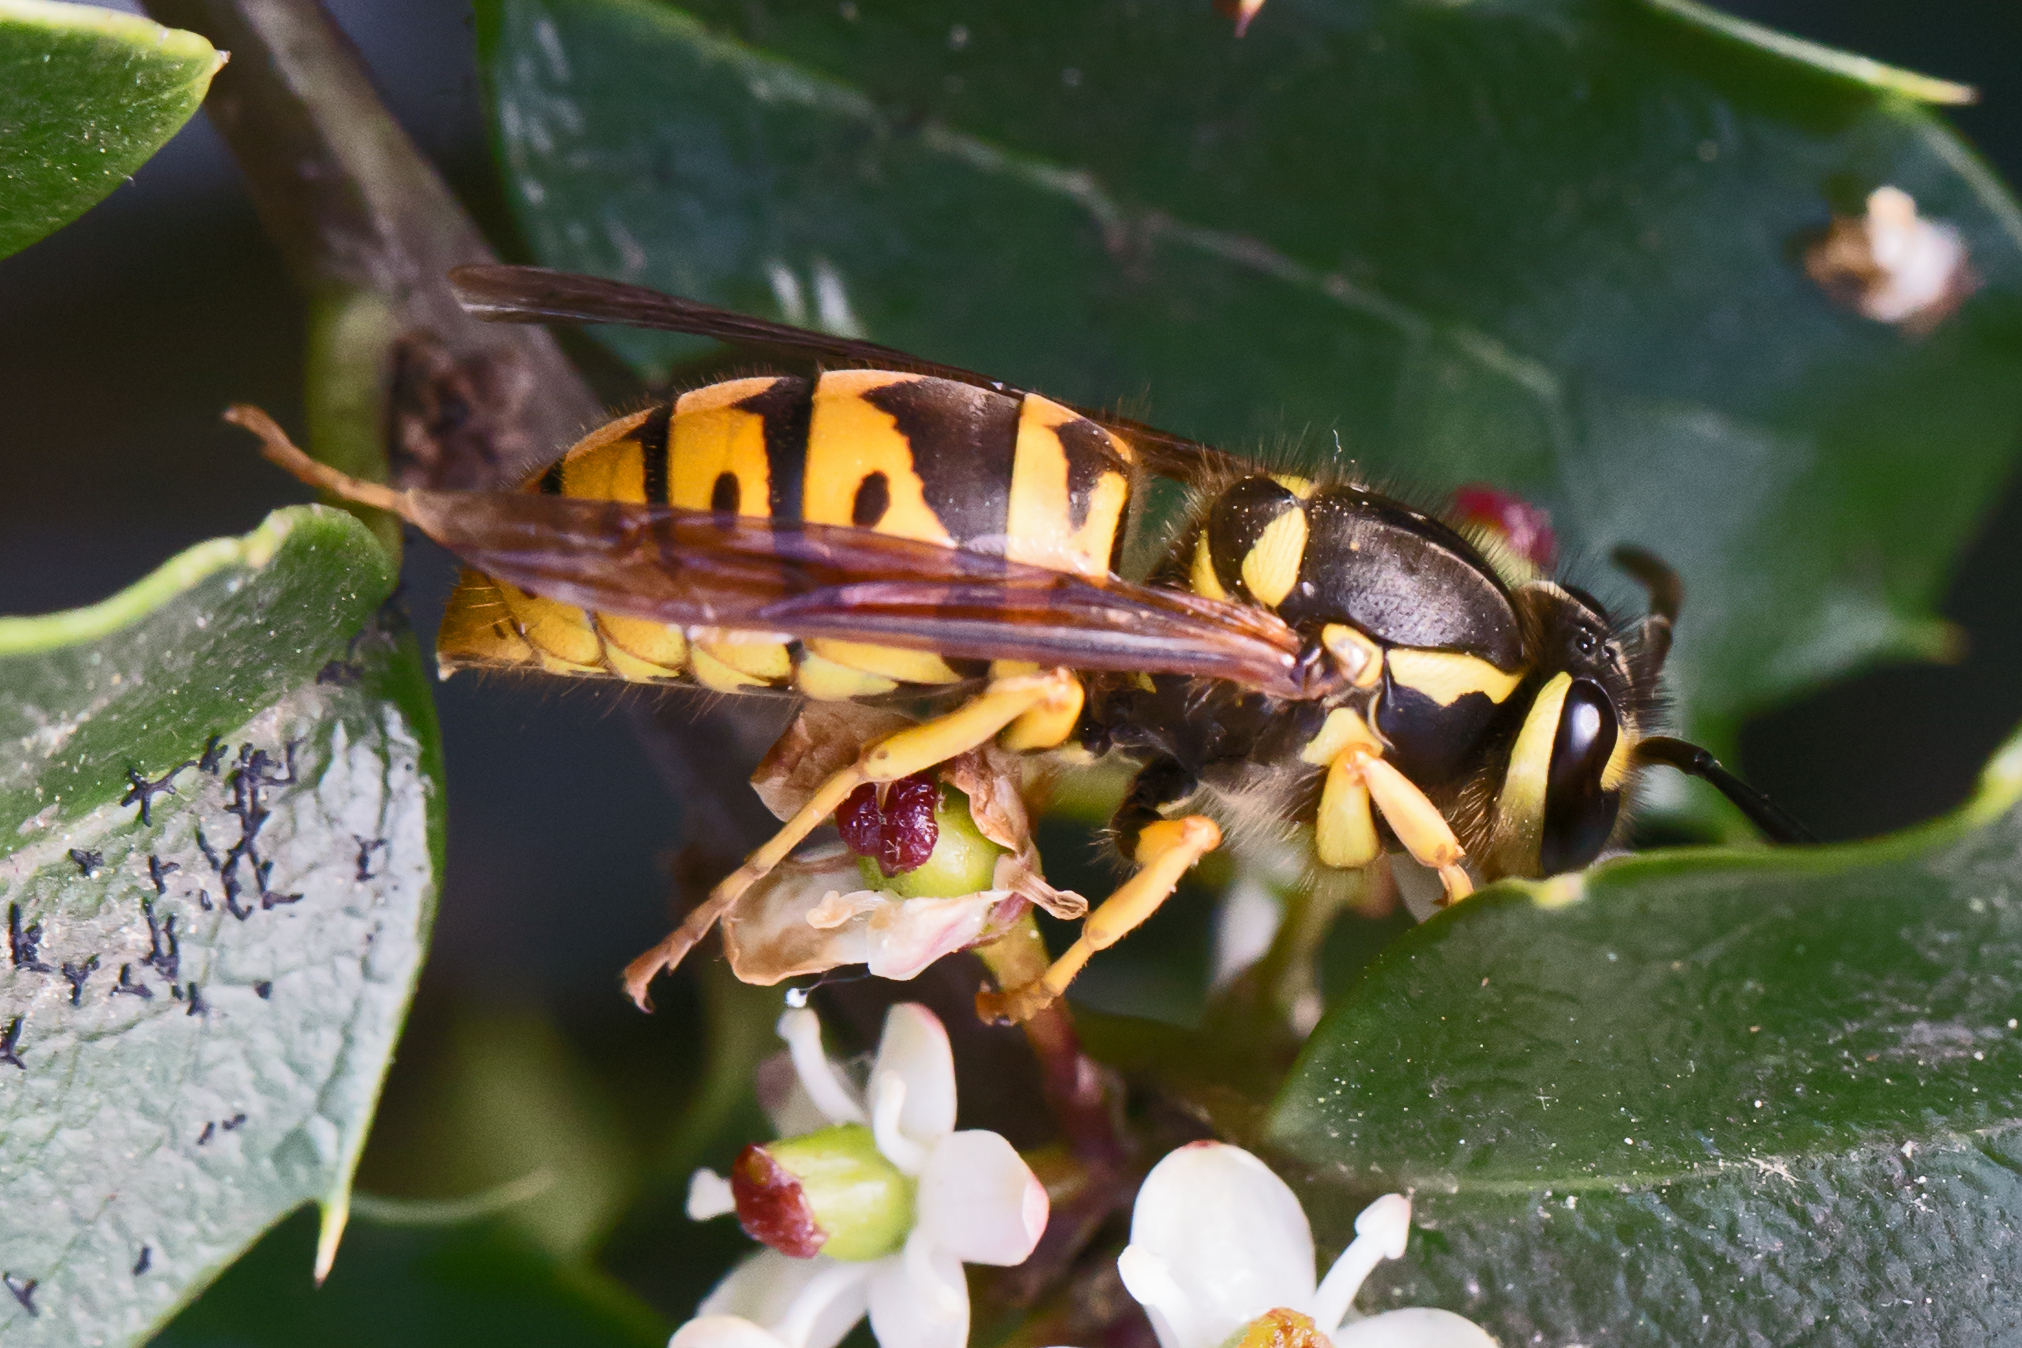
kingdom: Animalia
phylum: Arthropoda
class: Insecta
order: Hymenoptera
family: Vespidae
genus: Vespula
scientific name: Vespula maculifrons
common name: Eastern yellowjacket
